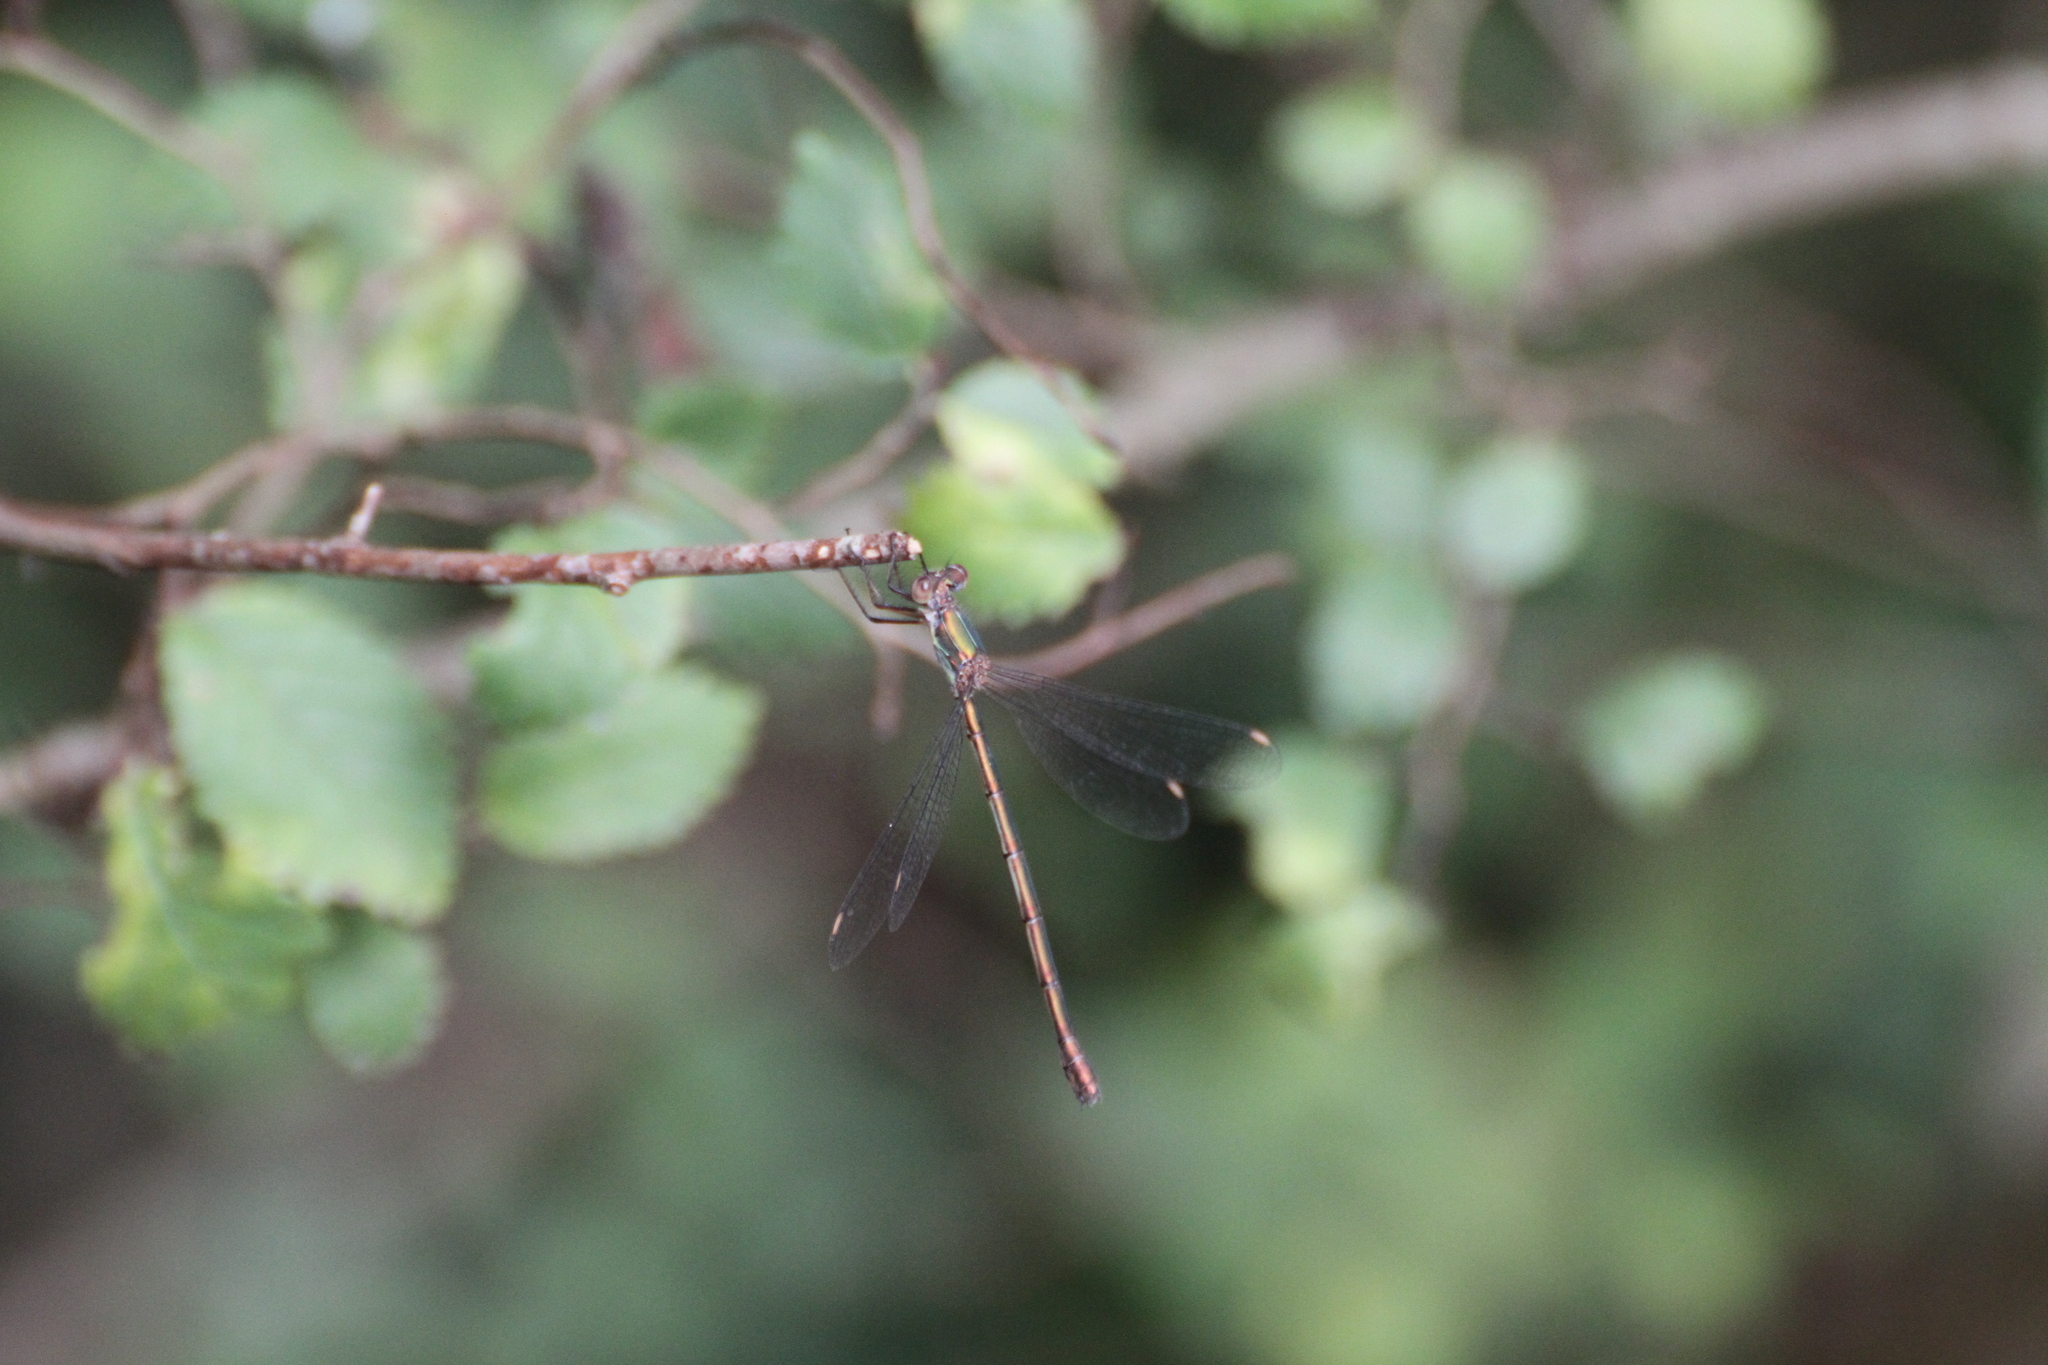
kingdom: Animalia
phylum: Arthropoda
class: Insecta
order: Odonata
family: Lestidae
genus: Chalcolestes
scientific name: Chalcolestes viridis
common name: Green emerald damselfly
